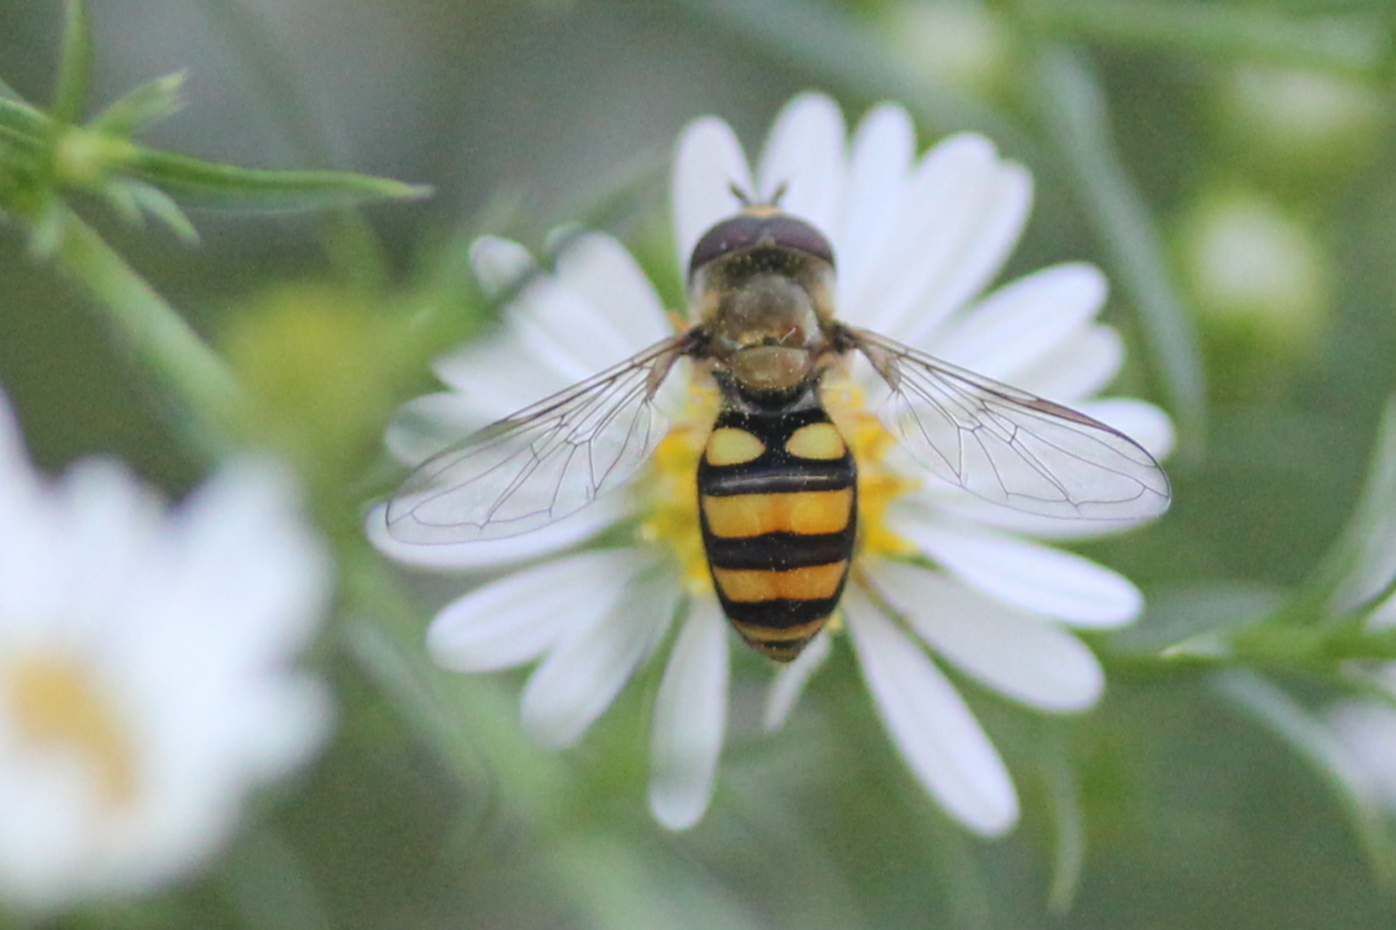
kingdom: Animalia
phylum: Arthropoda
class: Insecta
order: Diptera
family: Syrphidae
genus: Eupeodes
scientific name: Eupeodes
